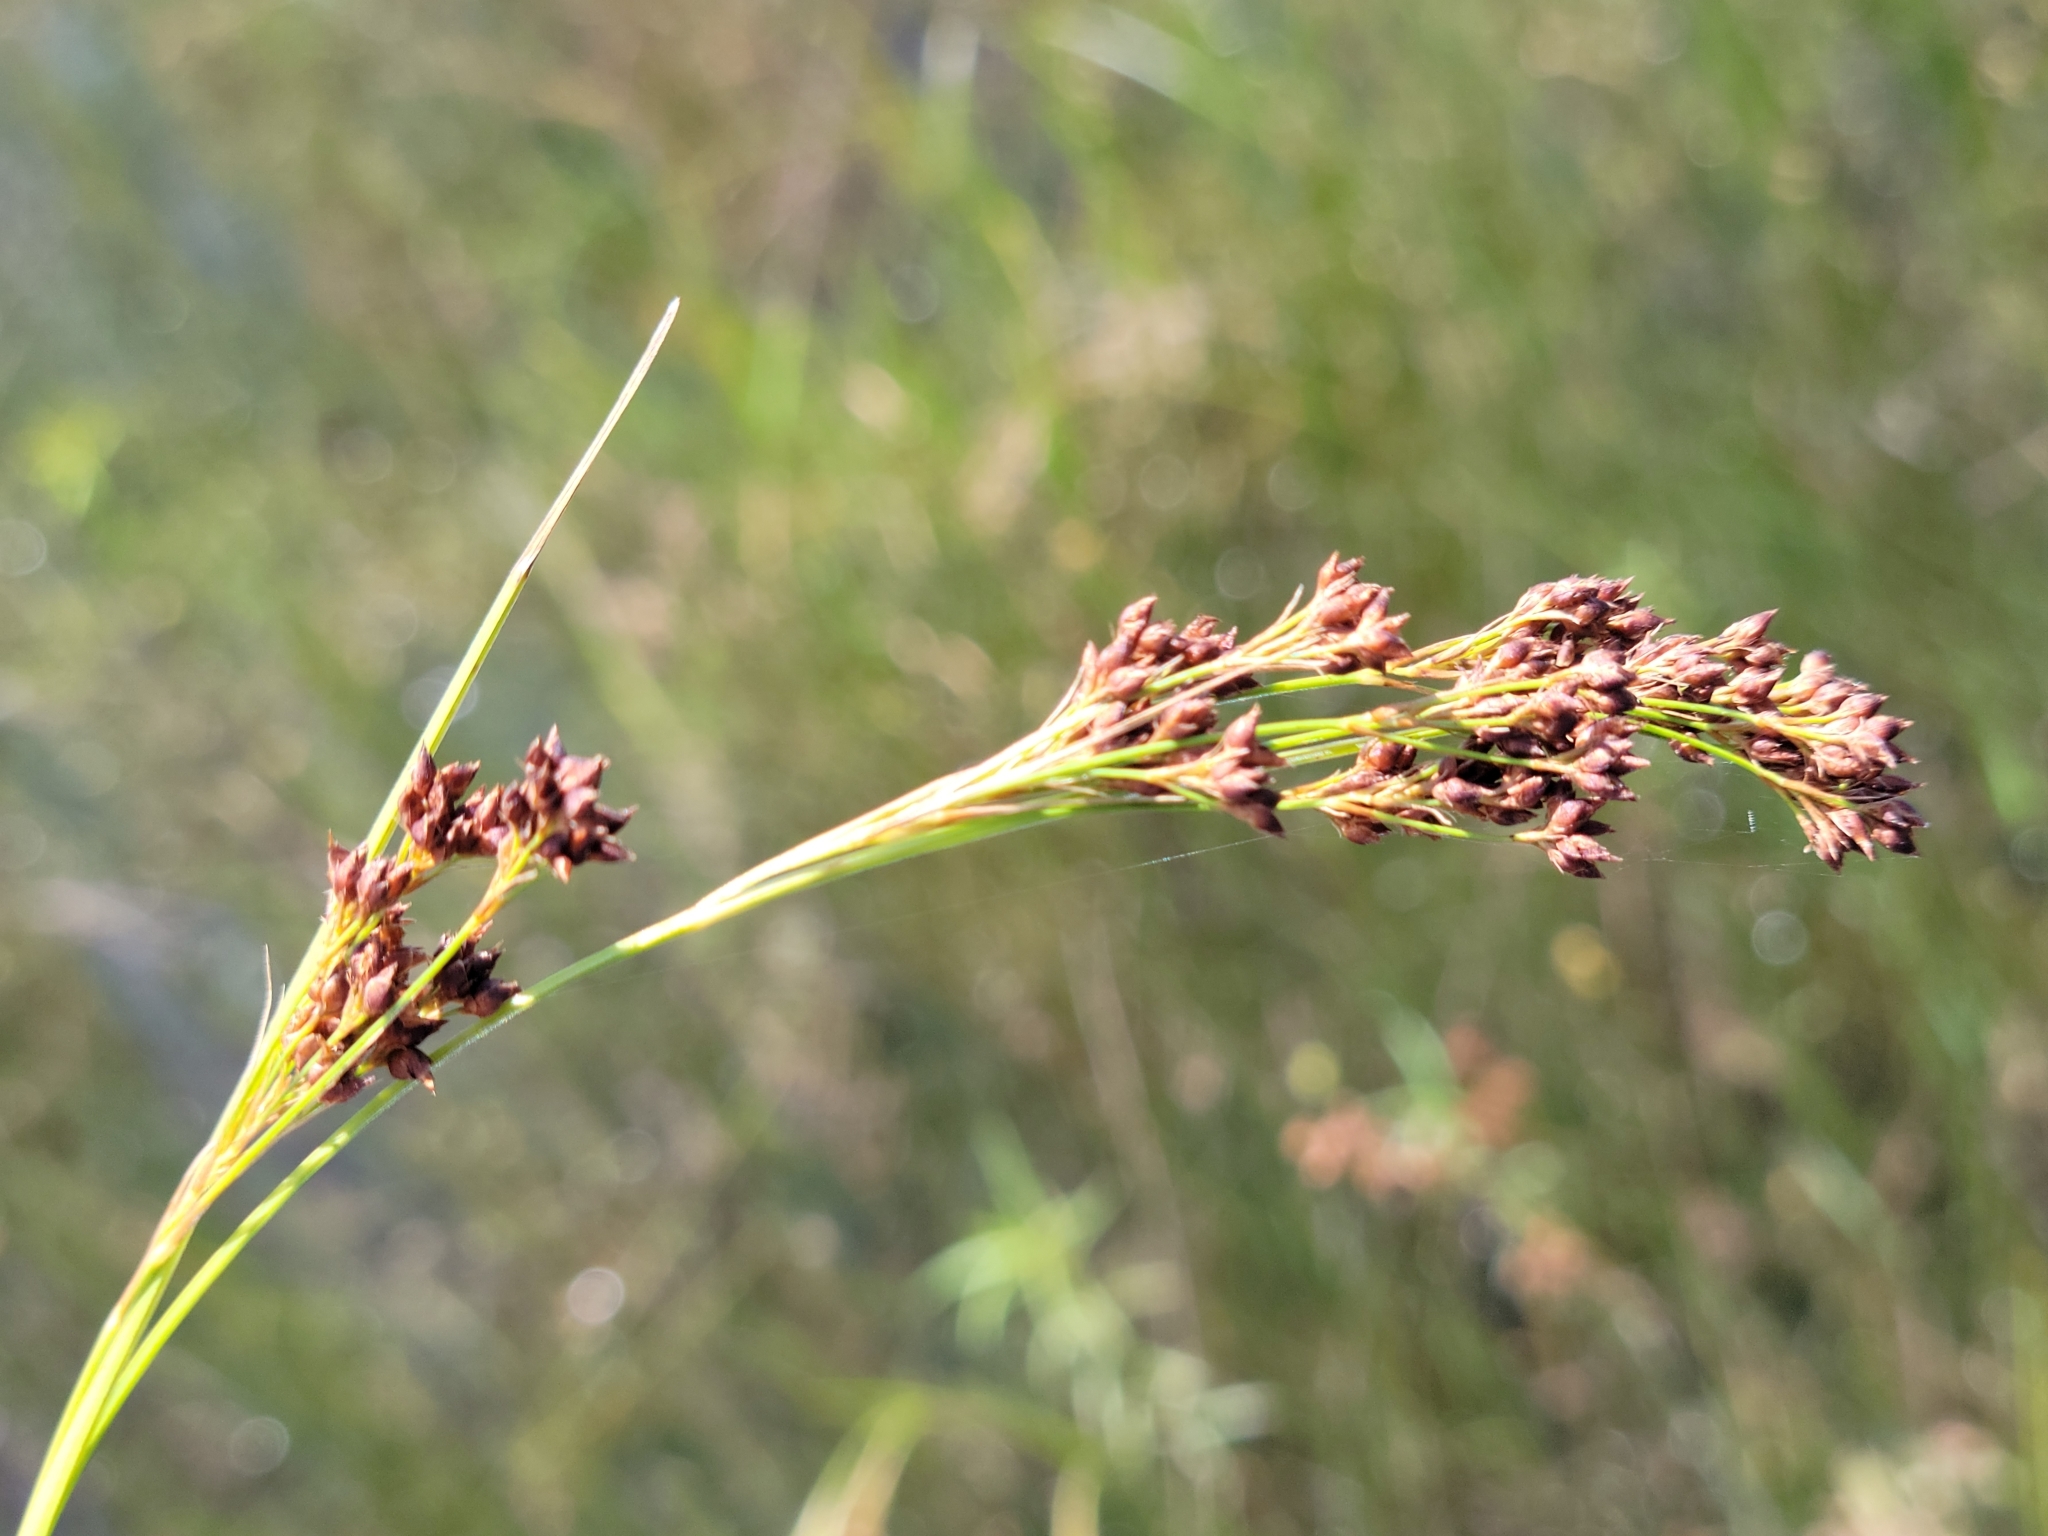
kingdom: Plantae
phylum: Tracheophyta
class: Liliopsida
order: Poales
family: Cyperaceae
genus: Rhynchospora
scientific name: Rhynchospora microcarpa
